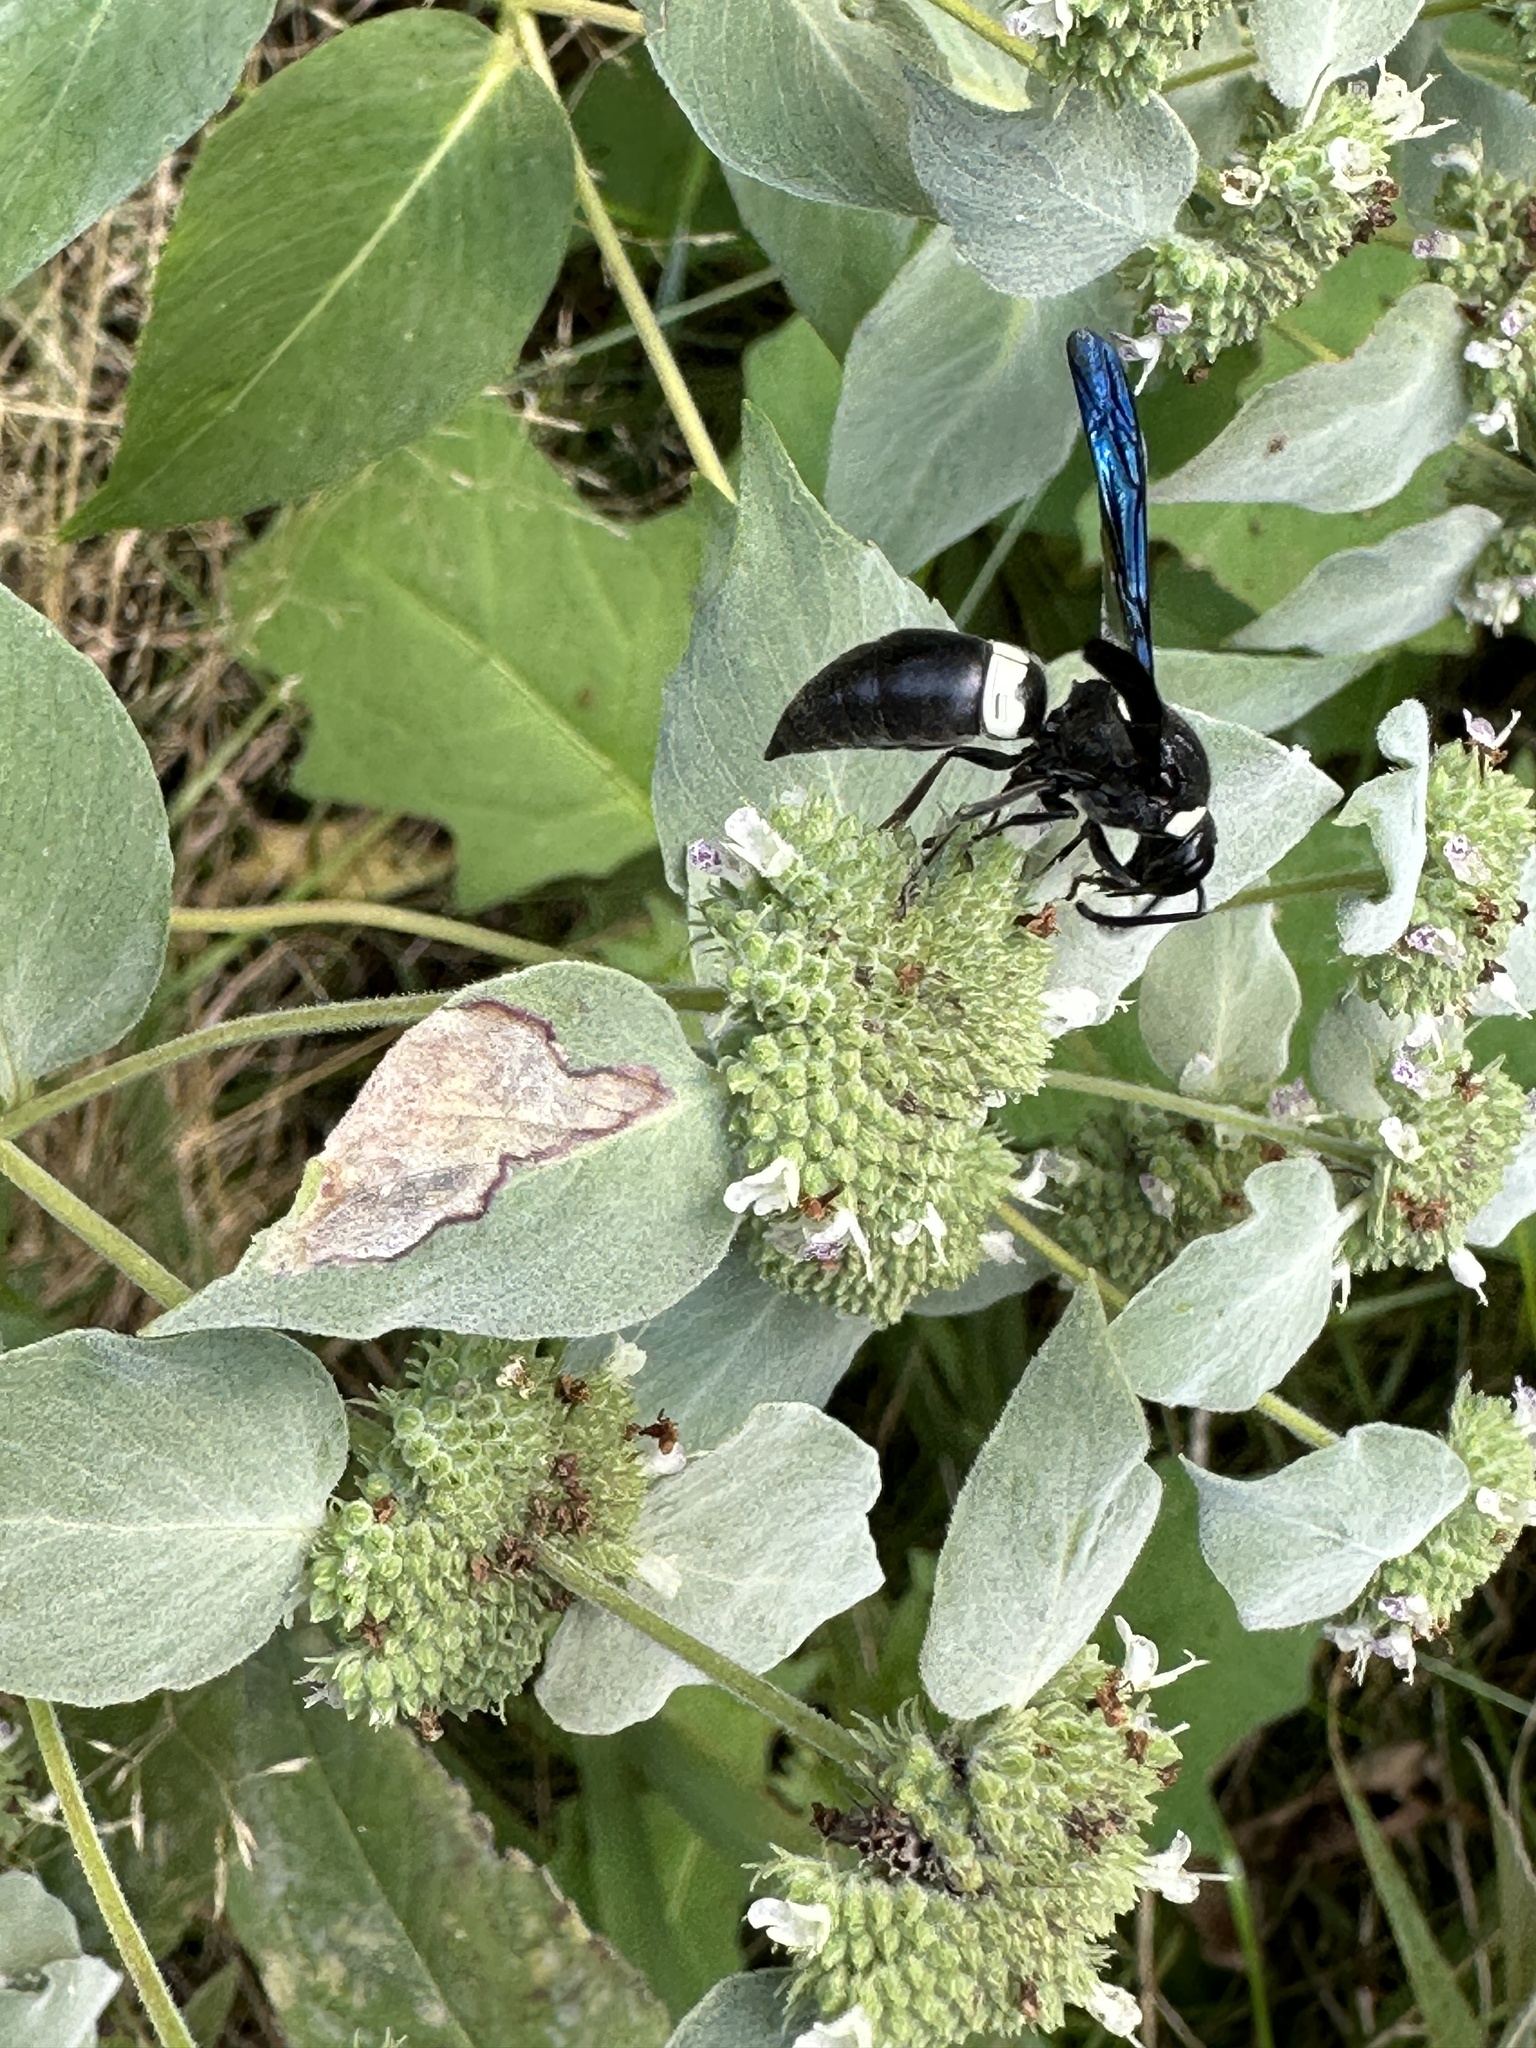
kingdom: Animalia
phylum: Arthropoda
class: Insecta
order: Hymenoptera
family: Eumenidae
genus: Monobia
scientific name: Monobia quadridens
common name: Four-toothed mason wasp
